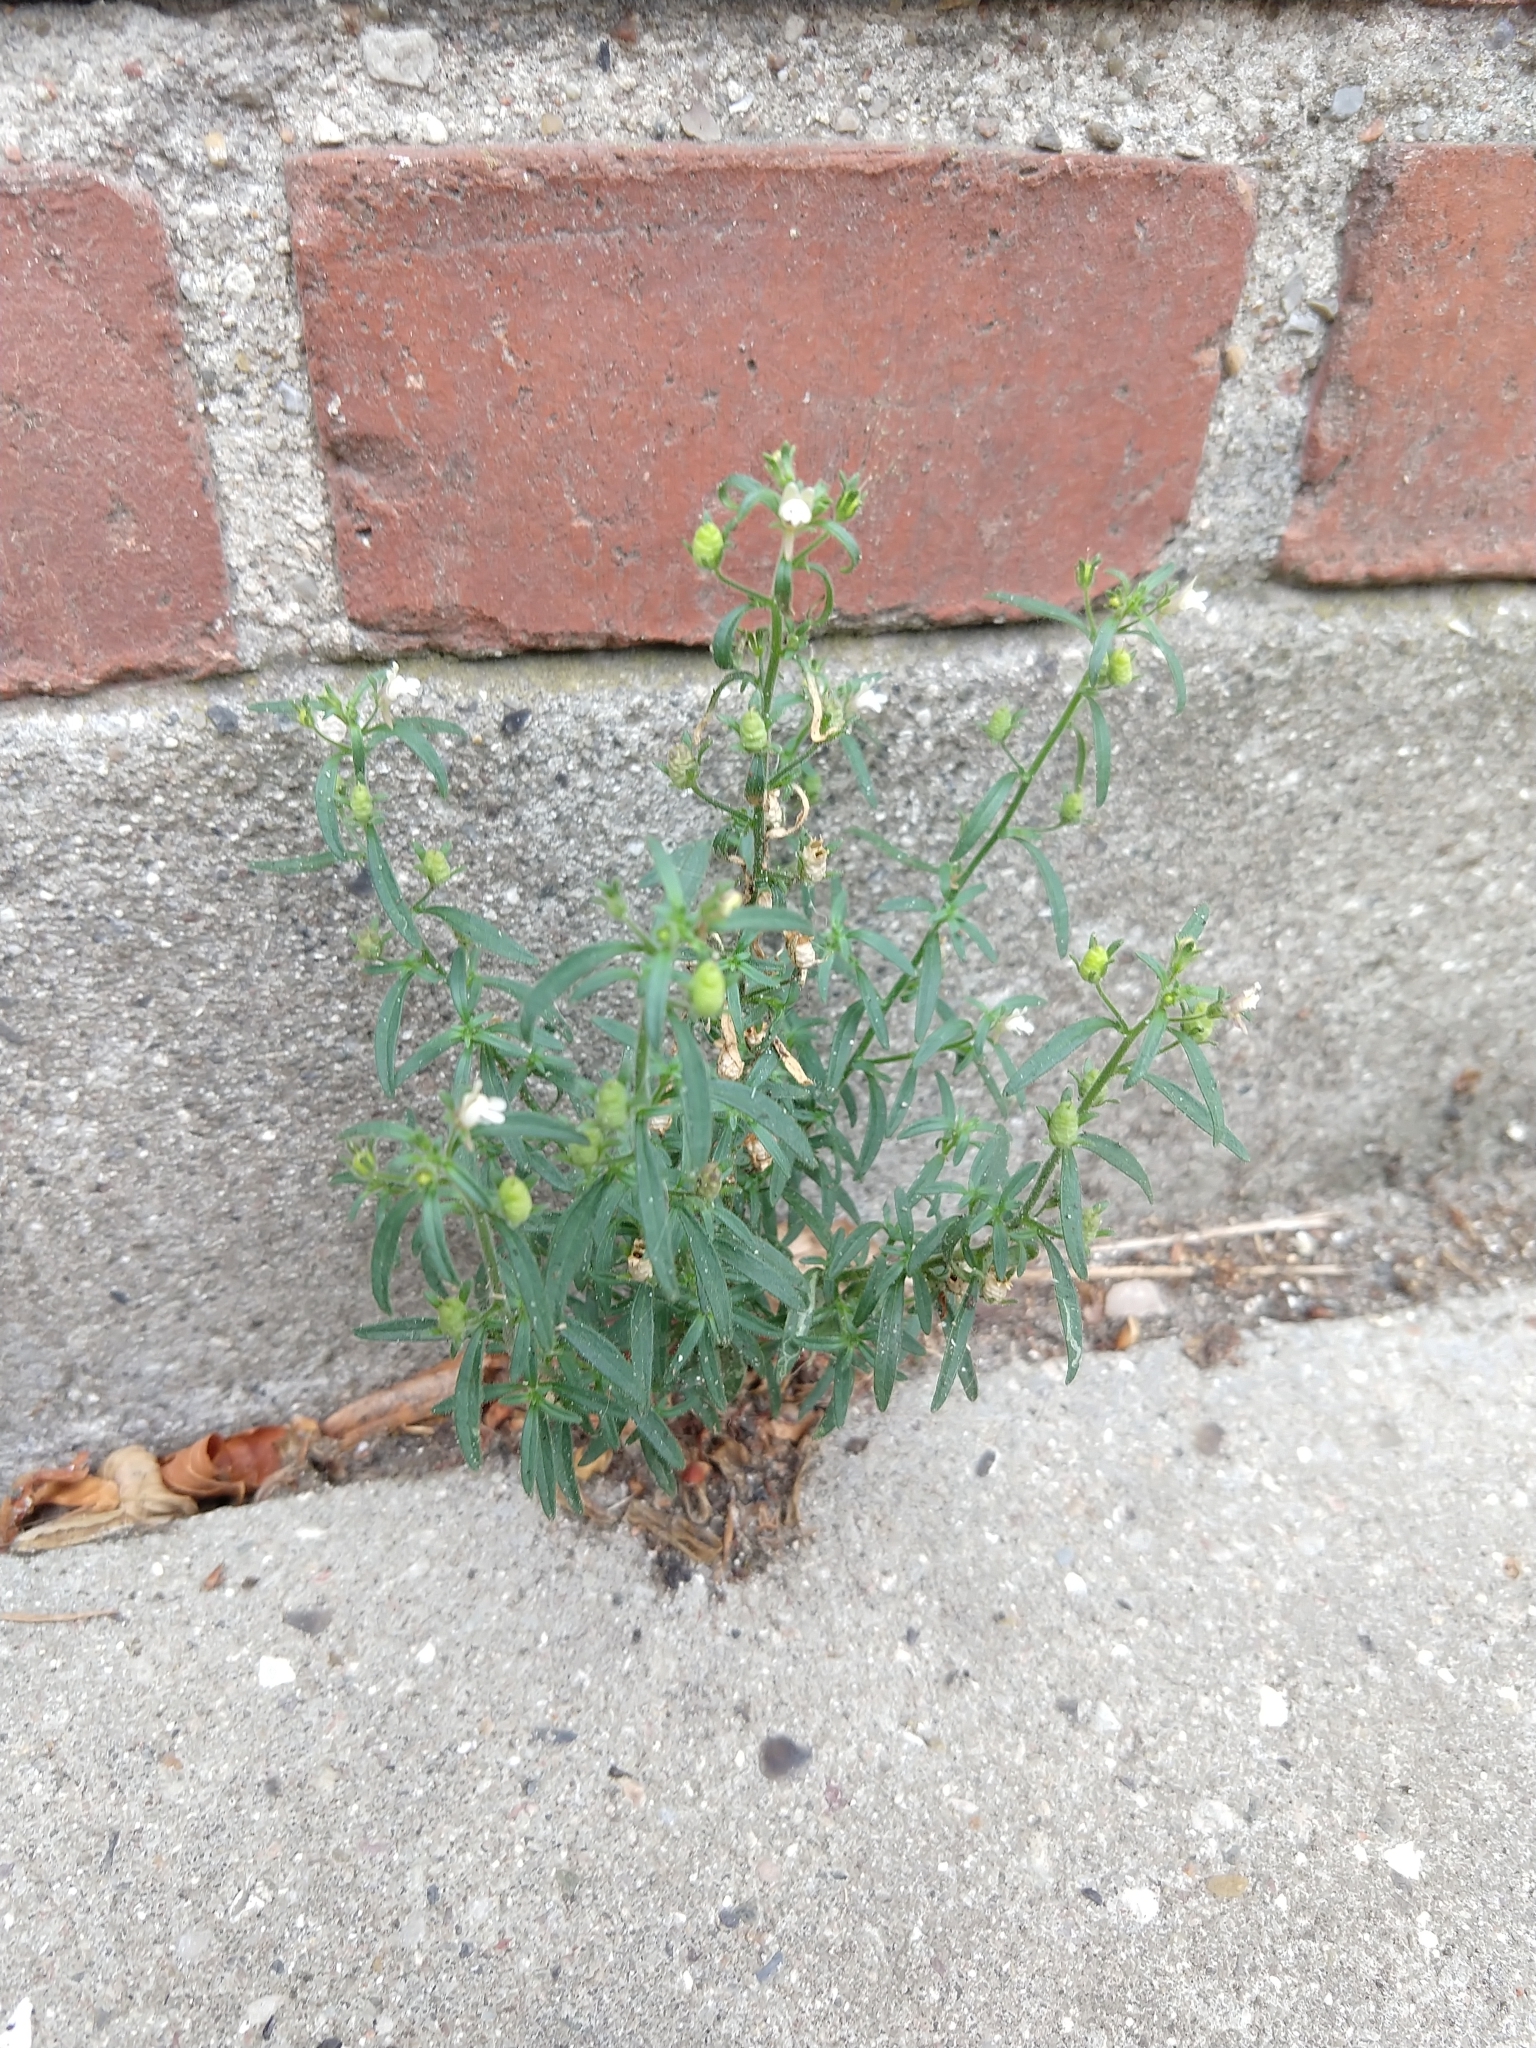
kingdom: Plantae
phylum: Tracheophyta
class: Magnoliopsida
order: Lamiales
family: Plantaginaceae
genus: Chaenorhinum
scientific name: Chaenorhinum minus
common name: Dwarf snapdragon
